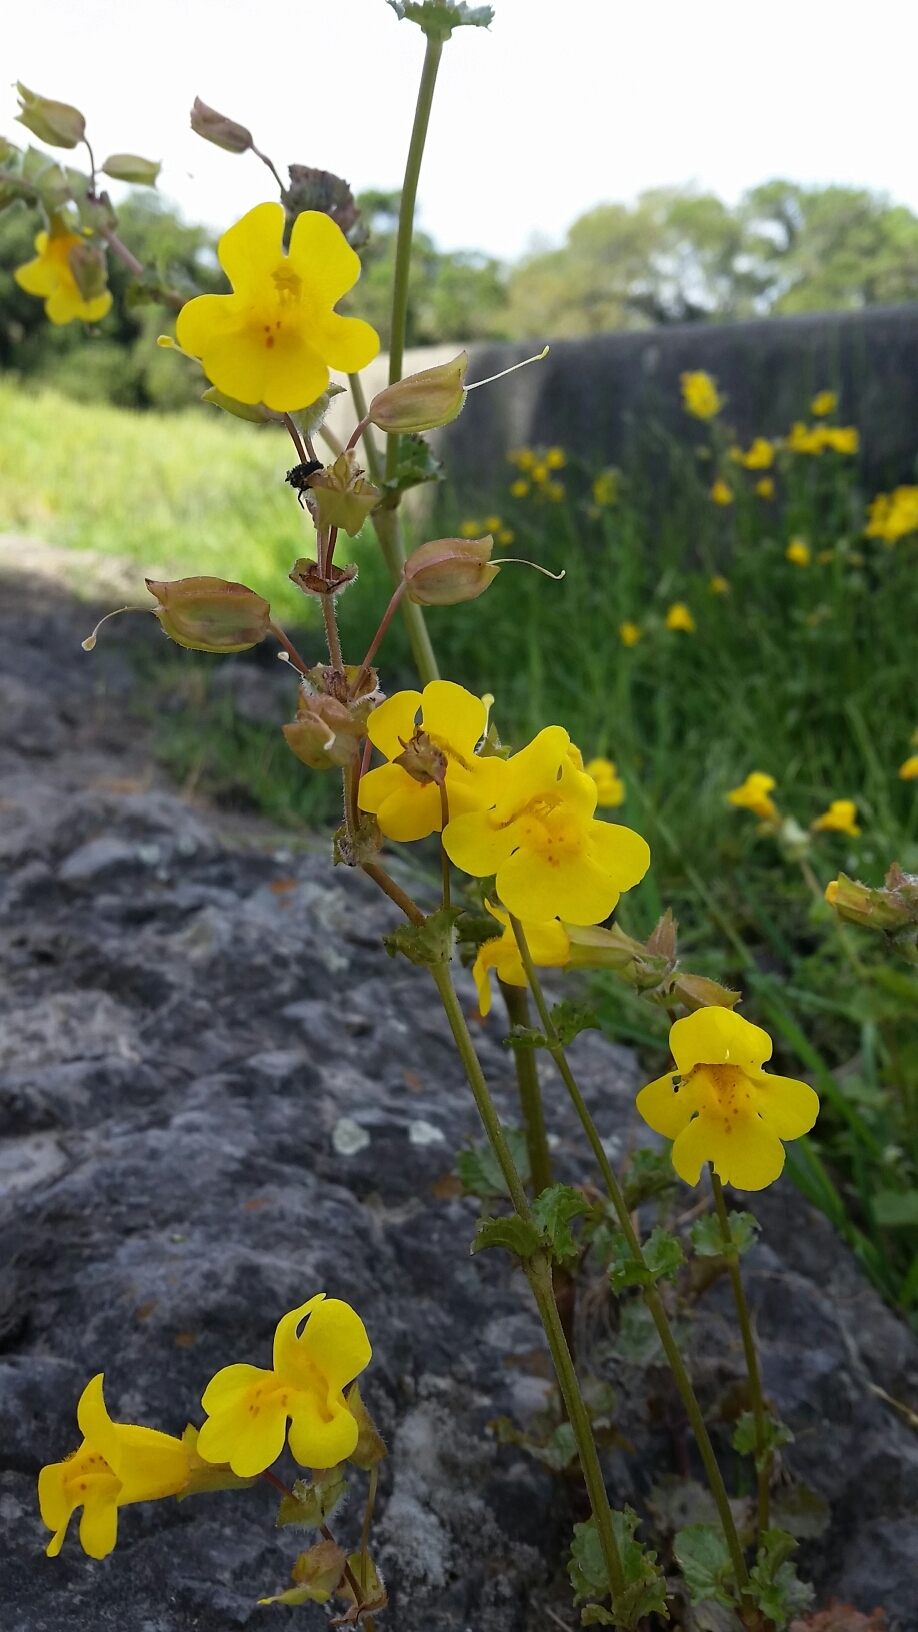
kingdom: Plantae
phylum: Tracheophyta
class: Magnoliopsida
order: Lamiales
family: Phrymaceae
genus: Erythranthe
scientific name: Erythranthe guttata
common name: Monkeyflower
